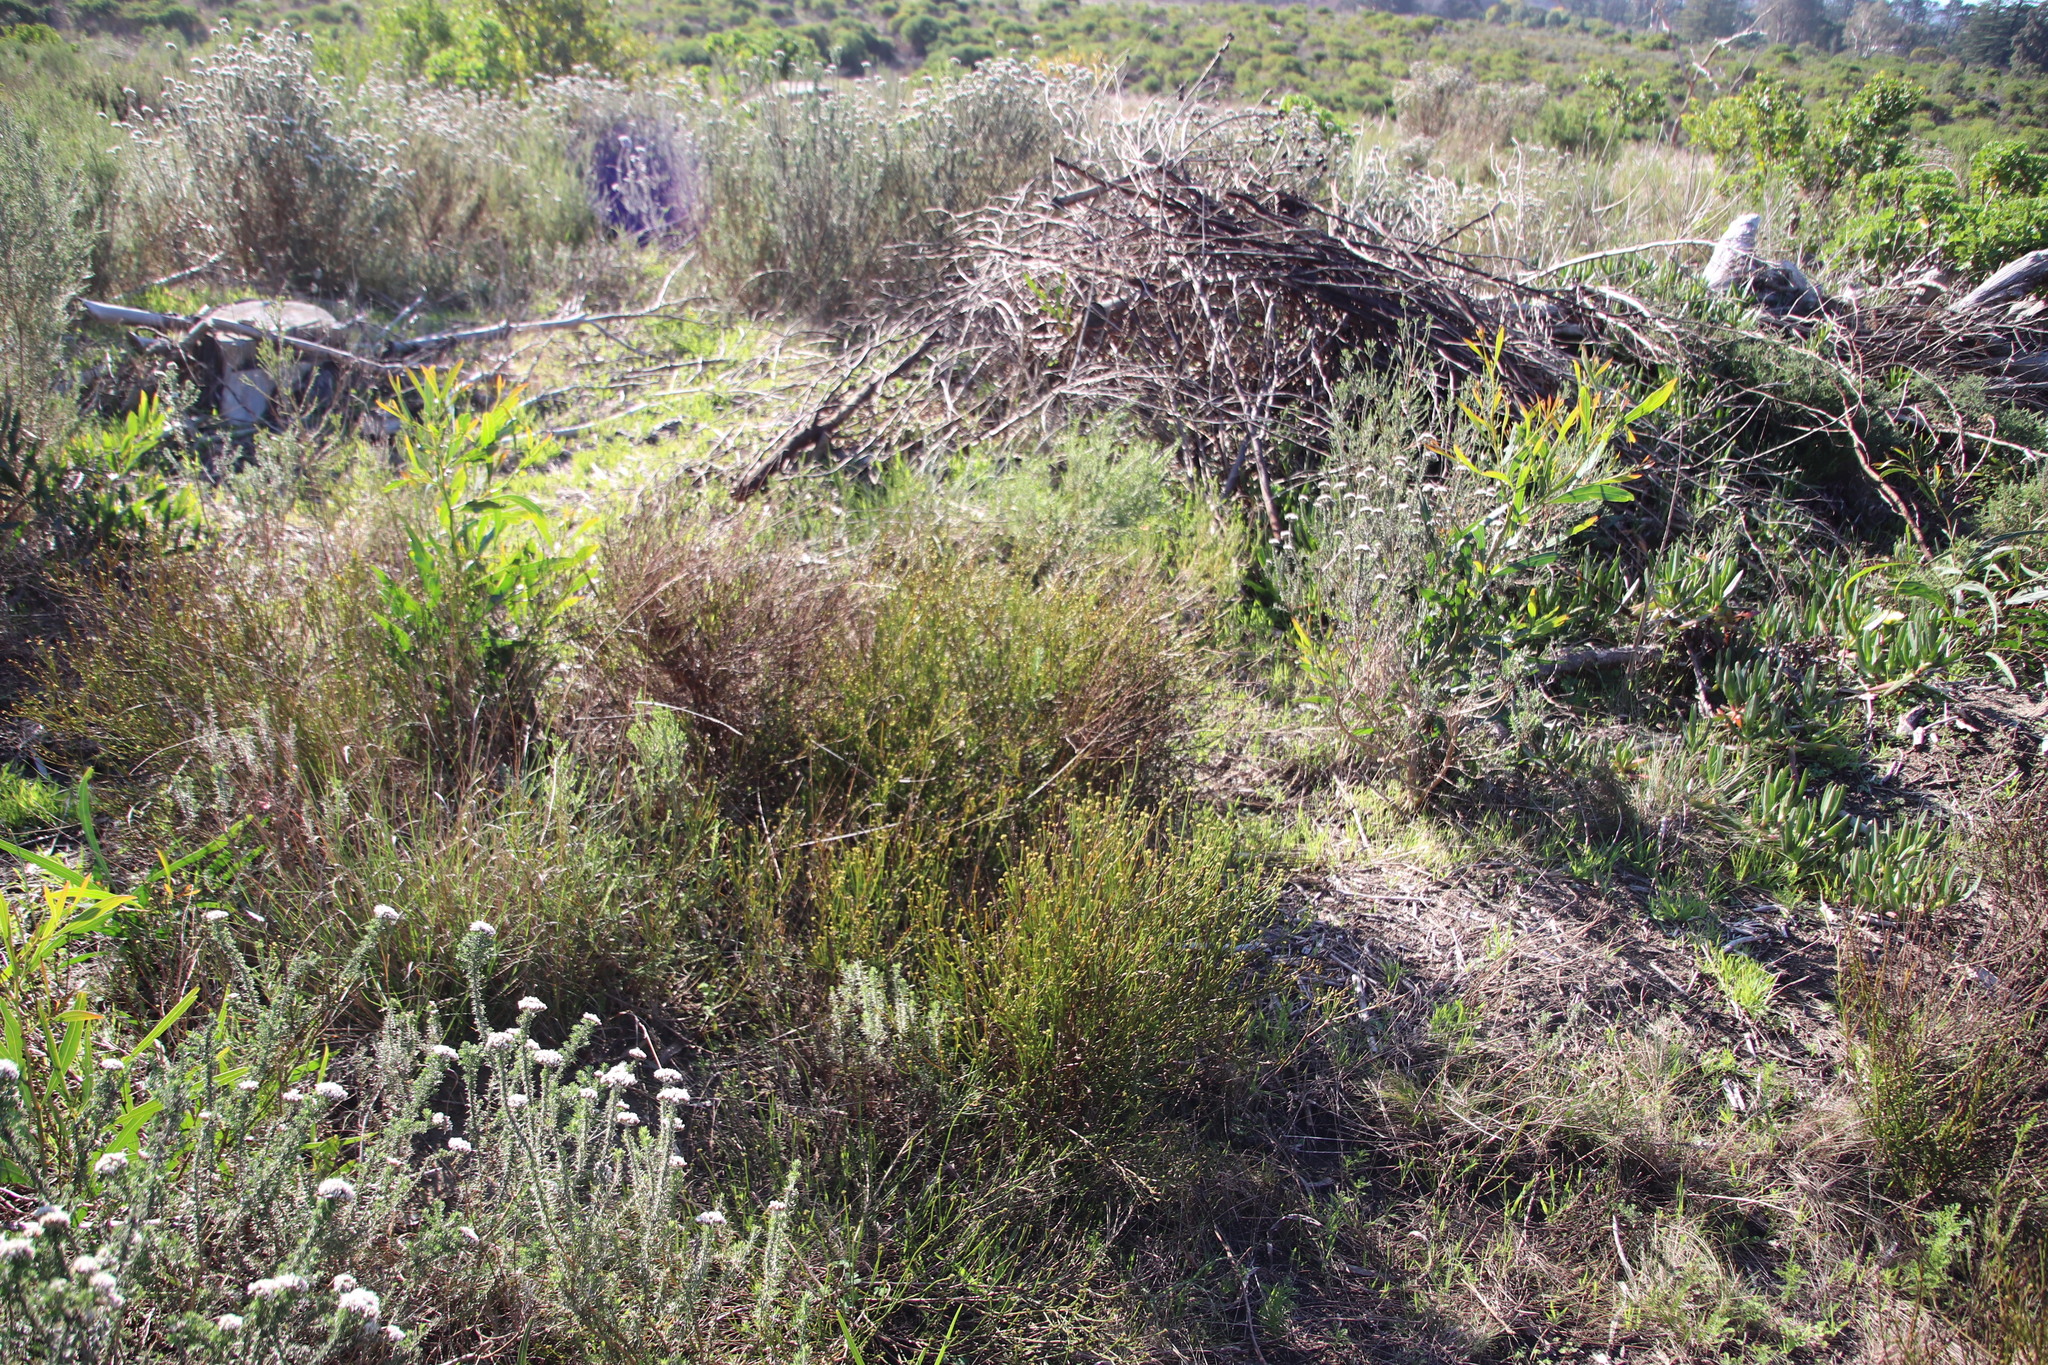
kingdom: Plantae
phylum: Tracheophyta
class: Magnoliopsida
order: Santalales
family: Thesiaceae
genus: Thesium
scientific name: Thesium aggregatum
